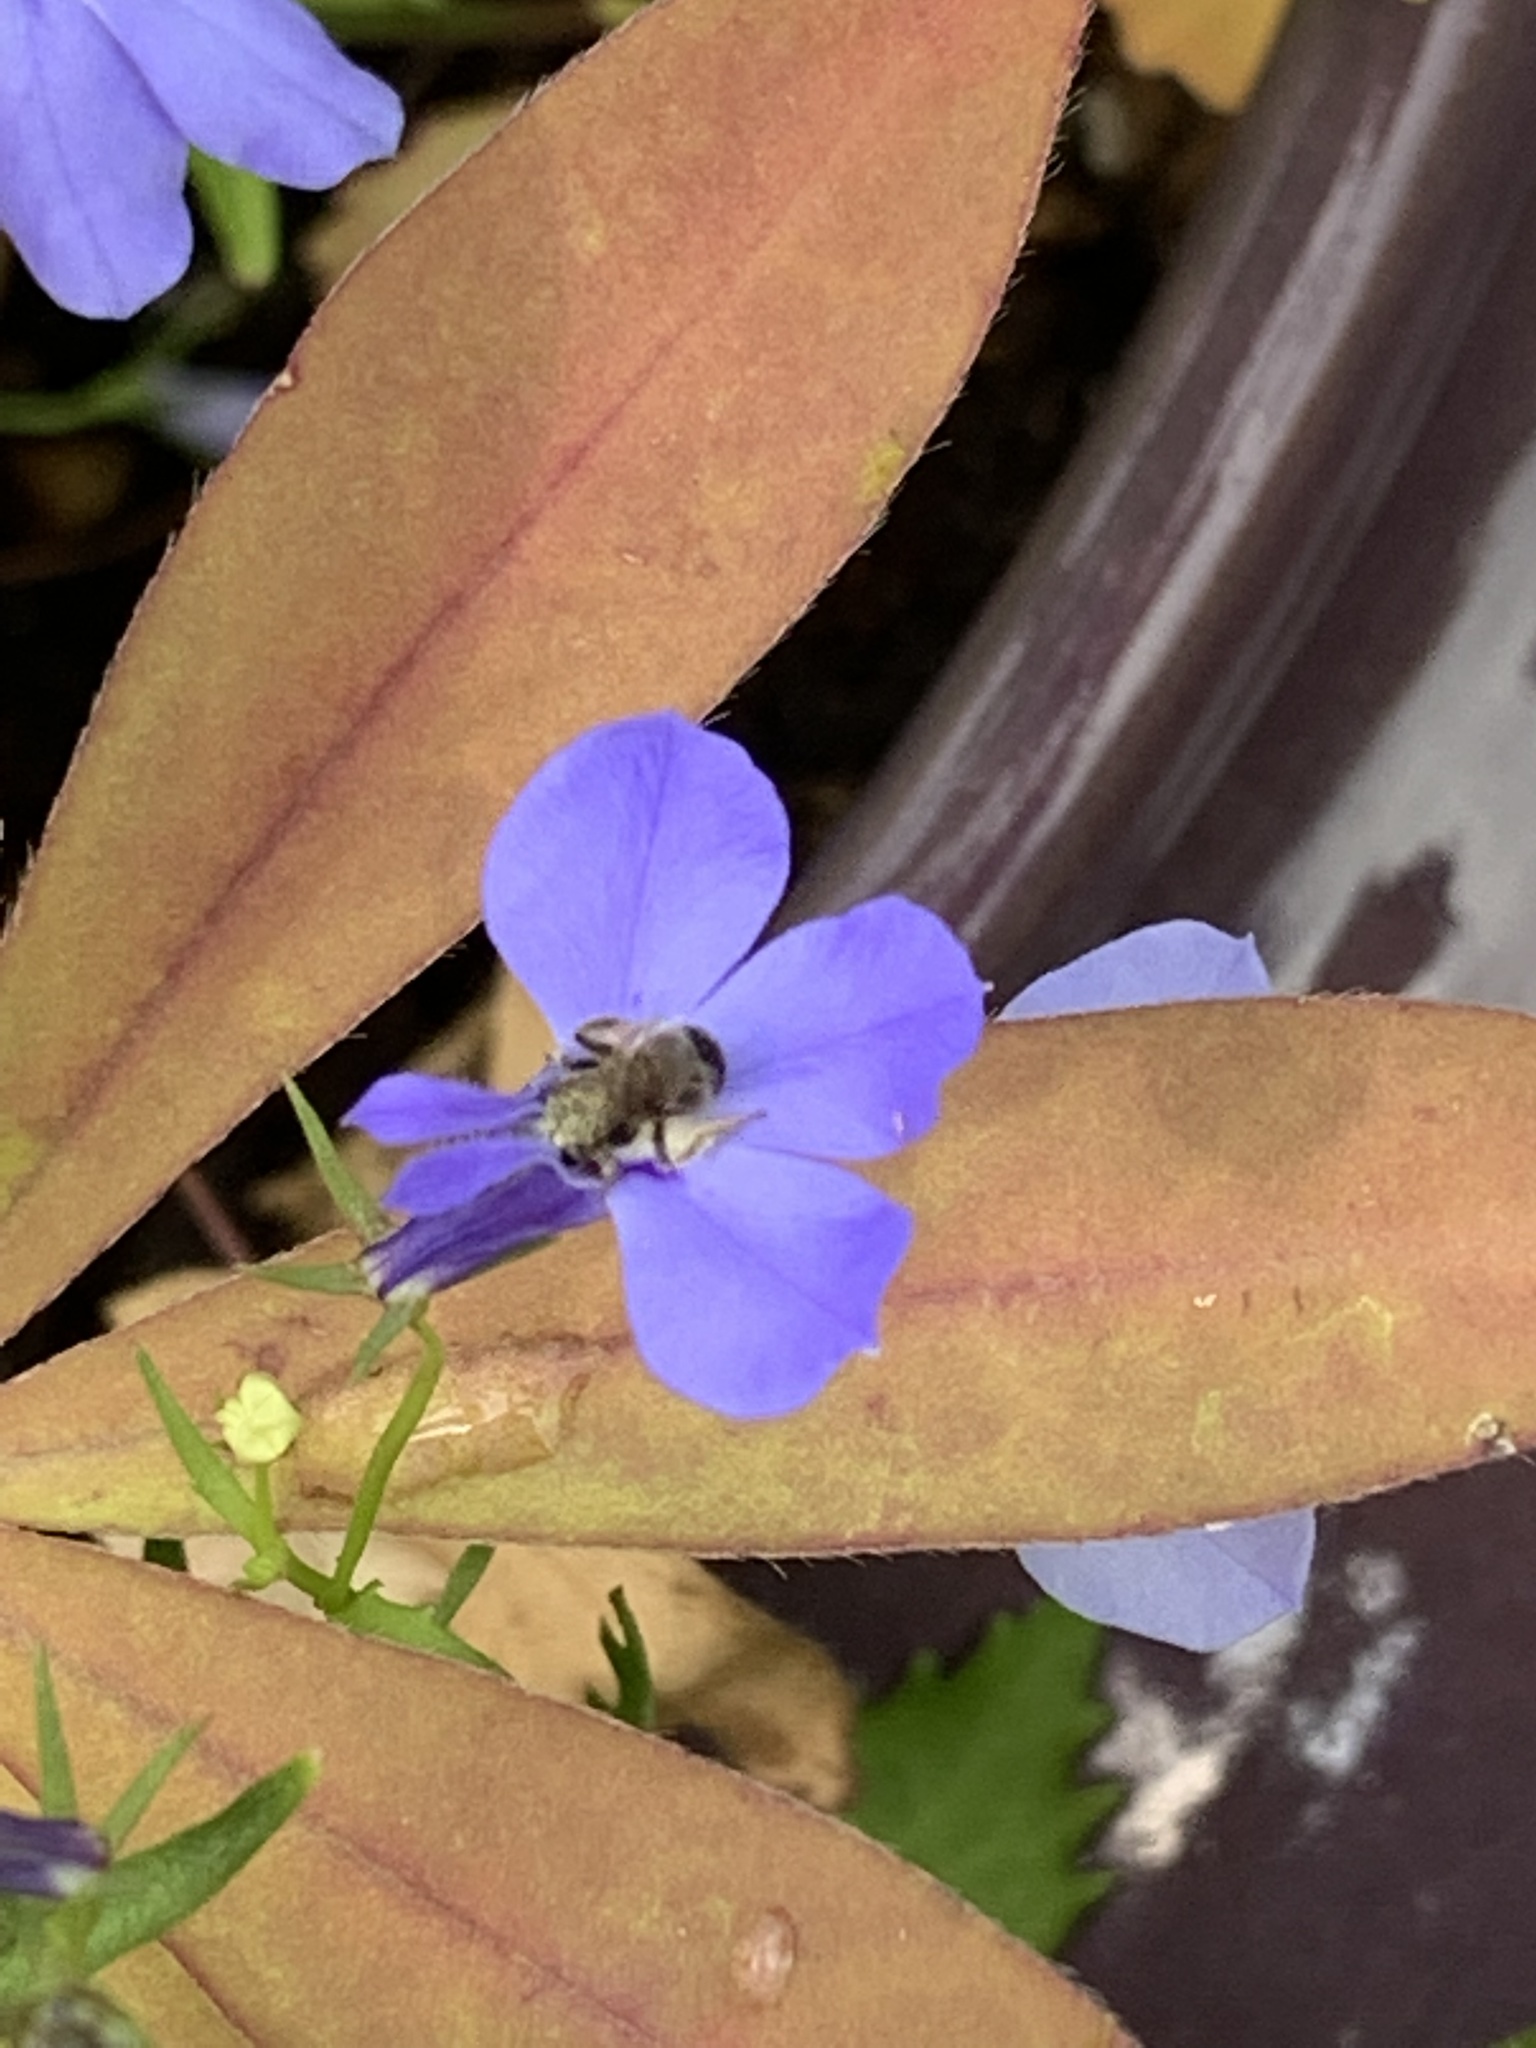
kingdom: Animalia
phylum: Arthropoda
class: Insecta
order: Hymenoptera
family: Halictidae
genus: Dialictus
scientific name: Dialictus
